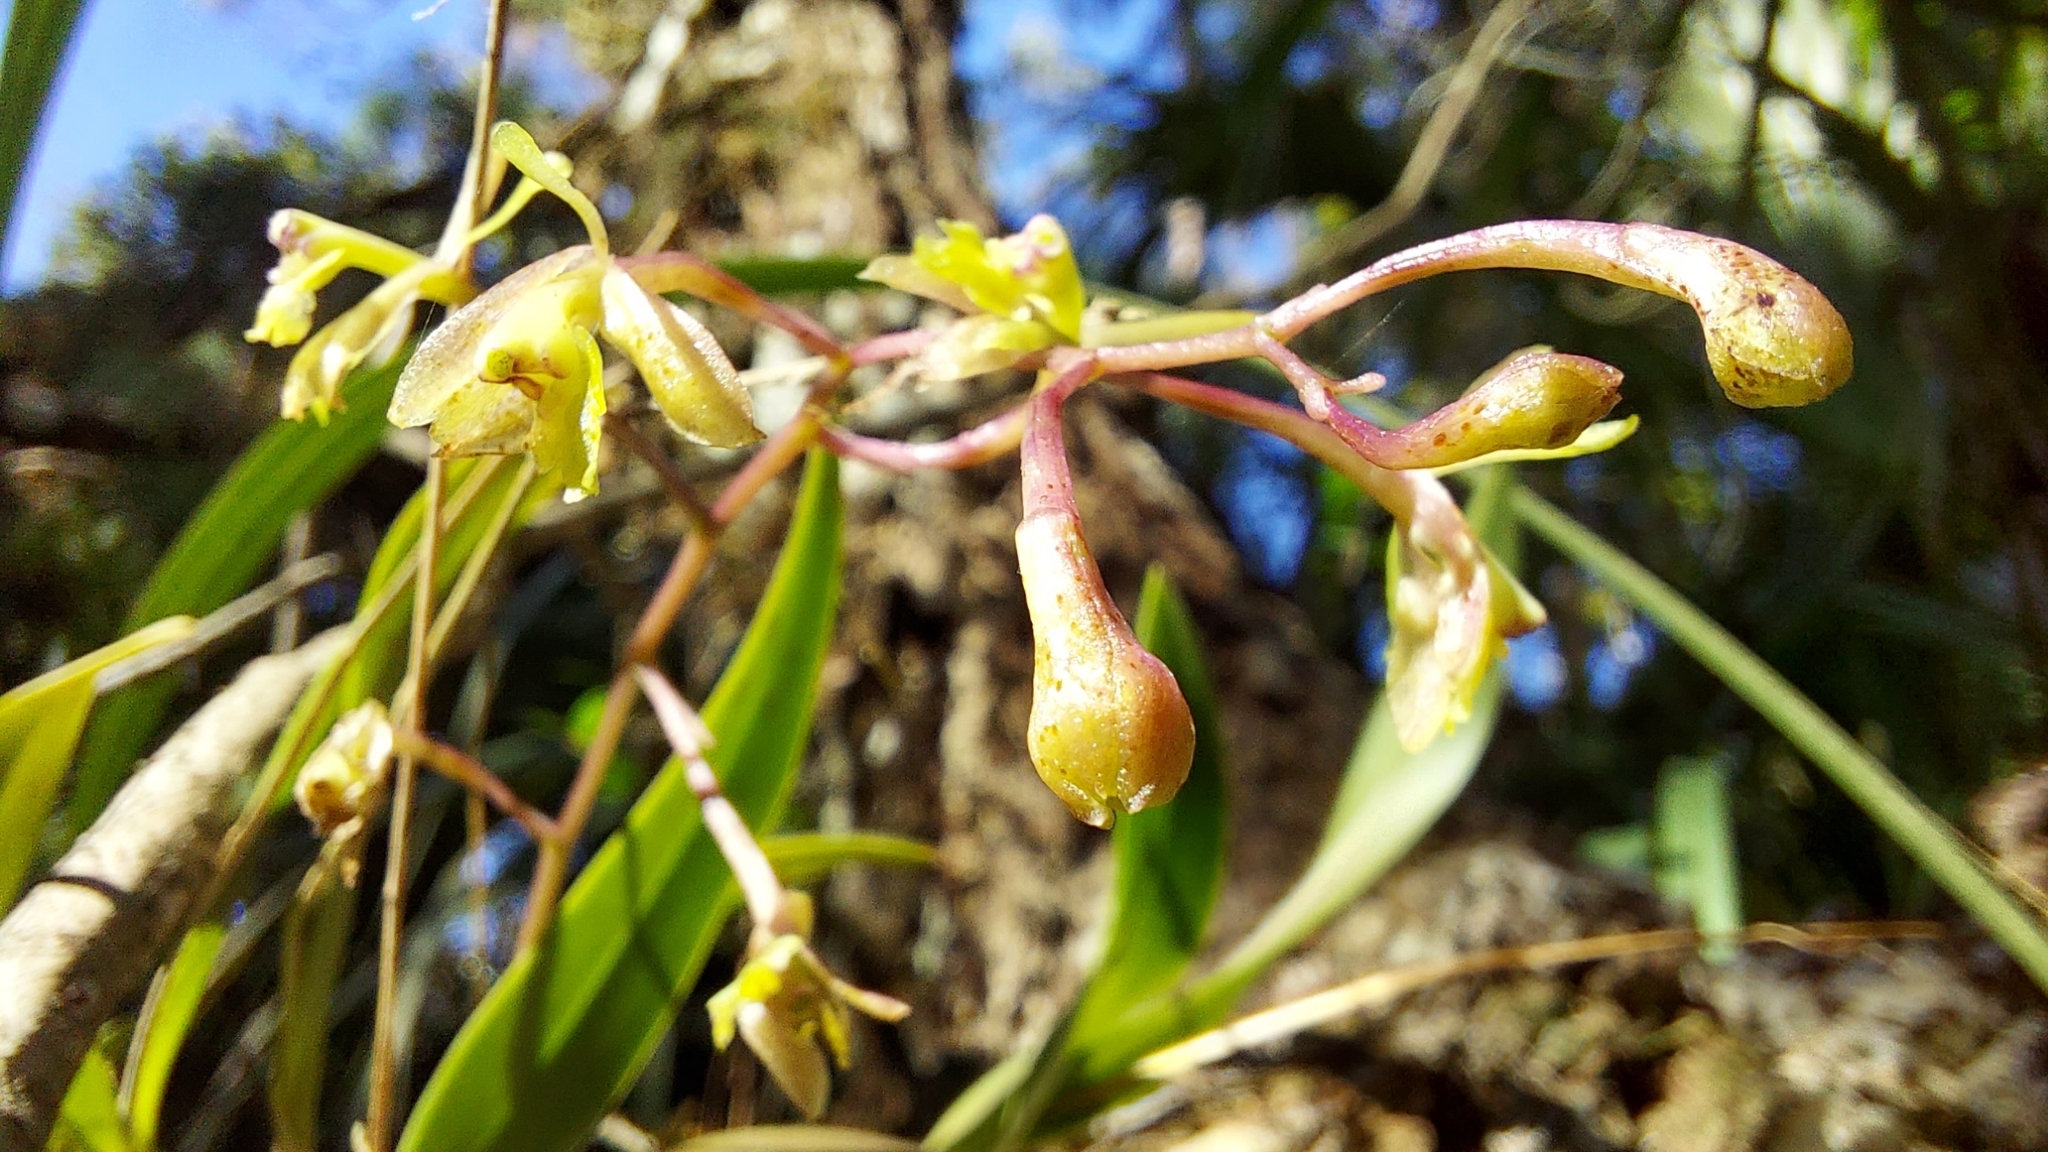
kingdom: Plantae
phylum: Tracheophyta
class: Liliopsida
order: Asparagales
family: Orchidaceae
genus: Epidendrum
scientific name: Epidendrum conopseum
